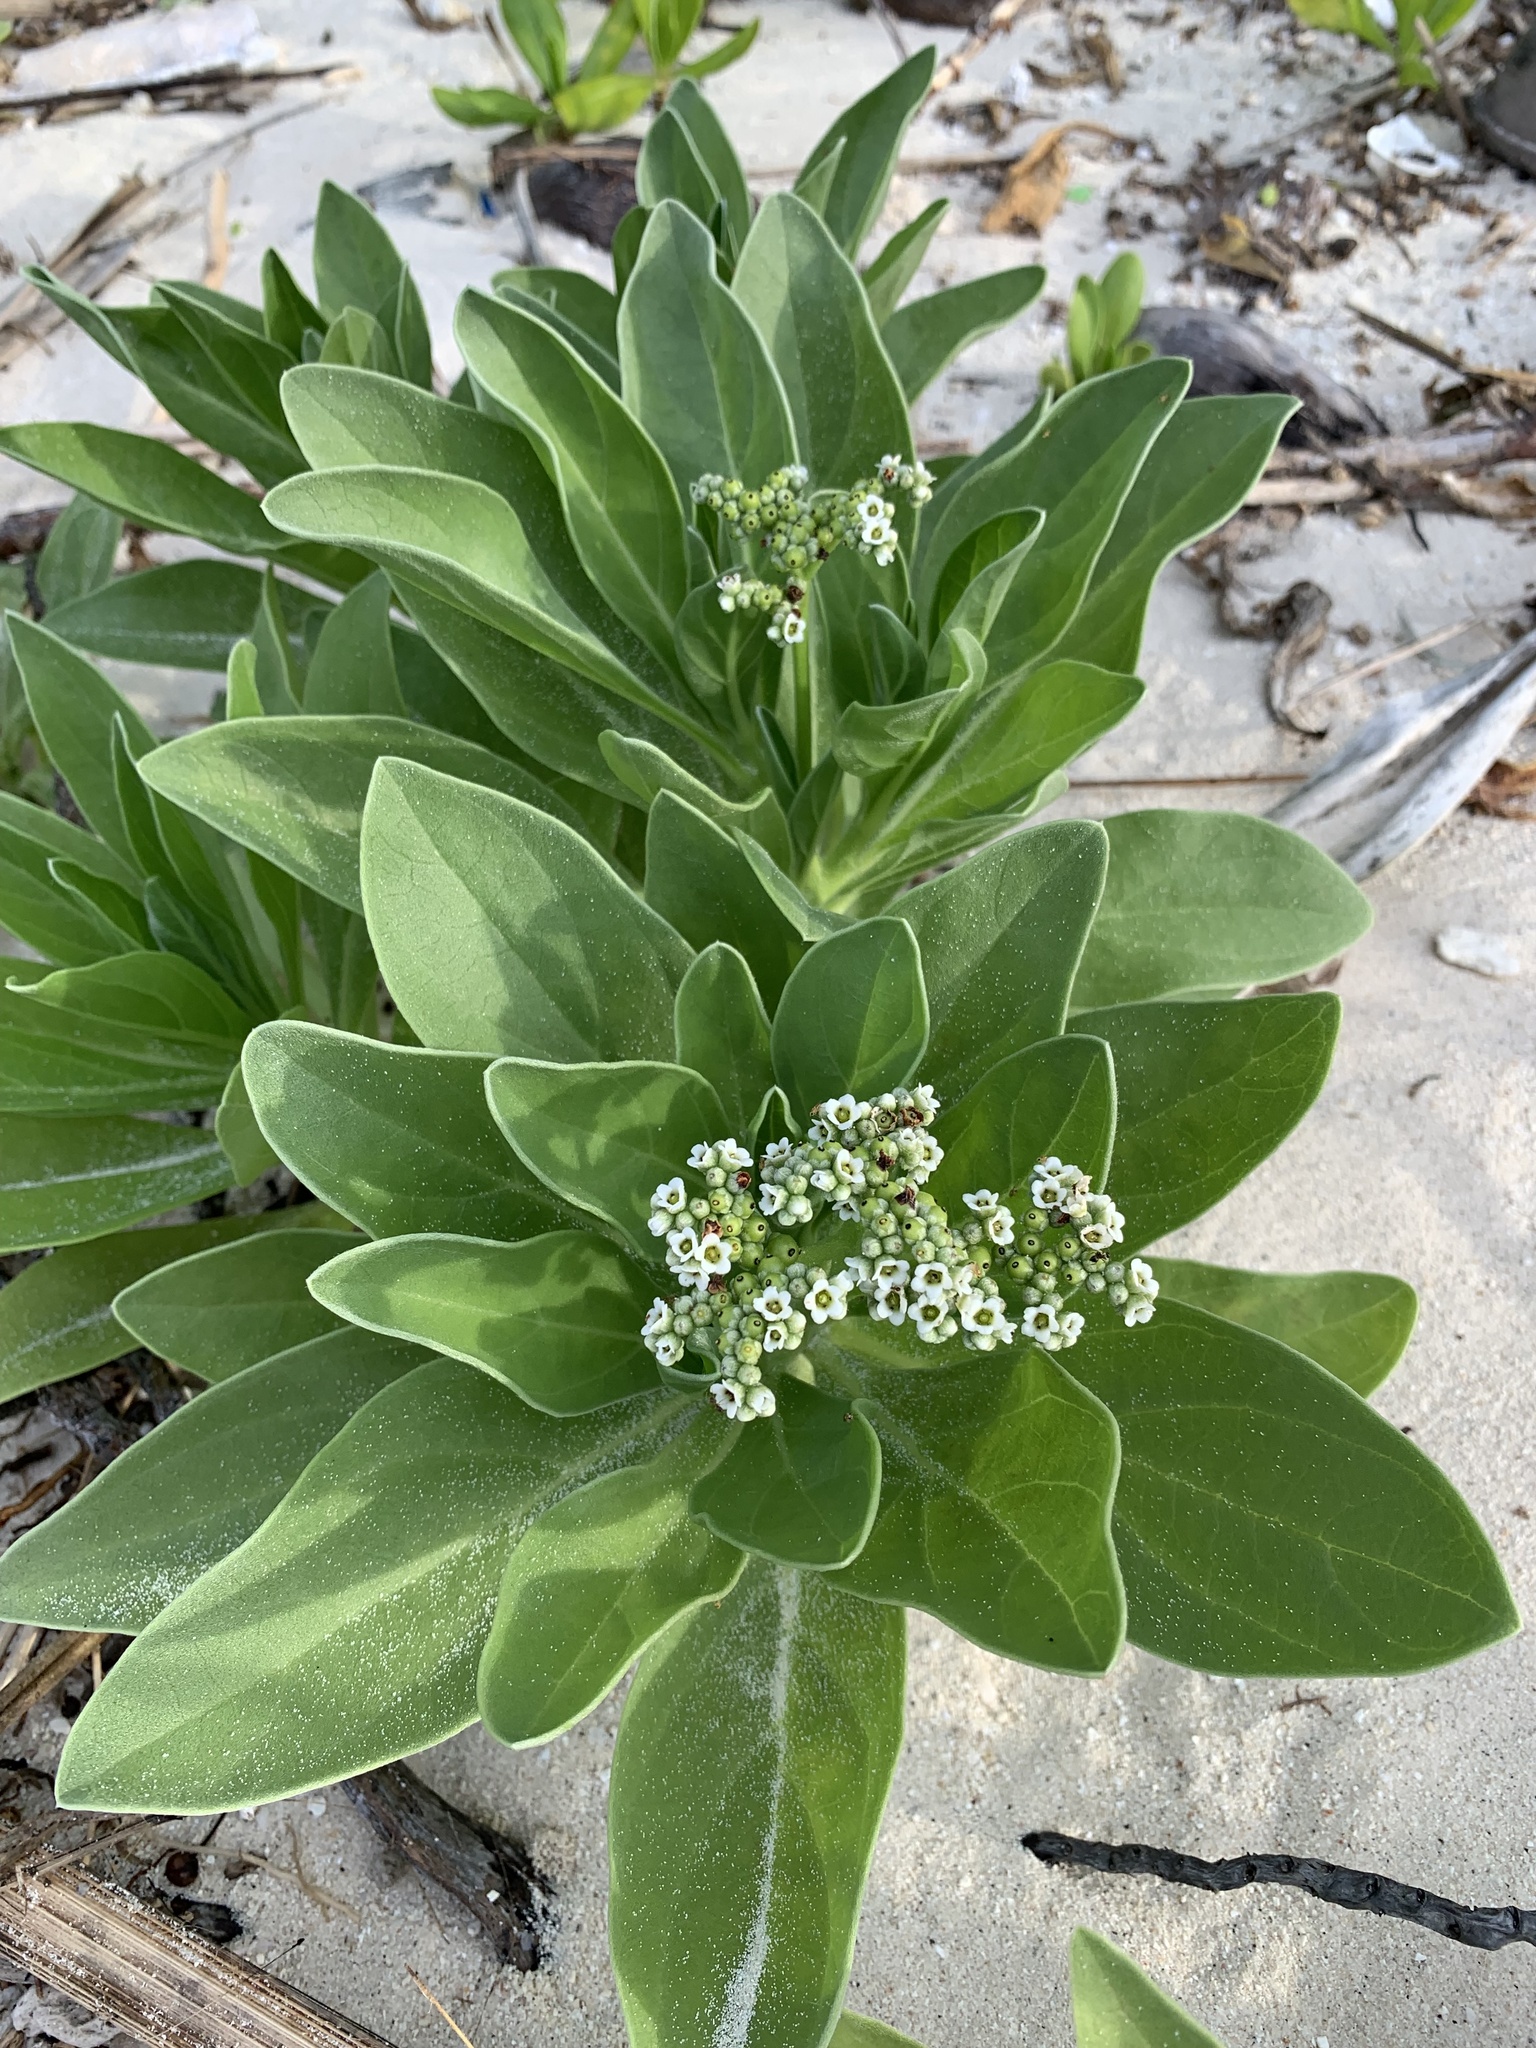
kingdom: Plantae
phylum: Tracheophyta
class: Magnoliopsida
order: Boraginales
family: Heliotropiaceae
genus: Heliotropium
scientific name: Heliotropium velutinum
